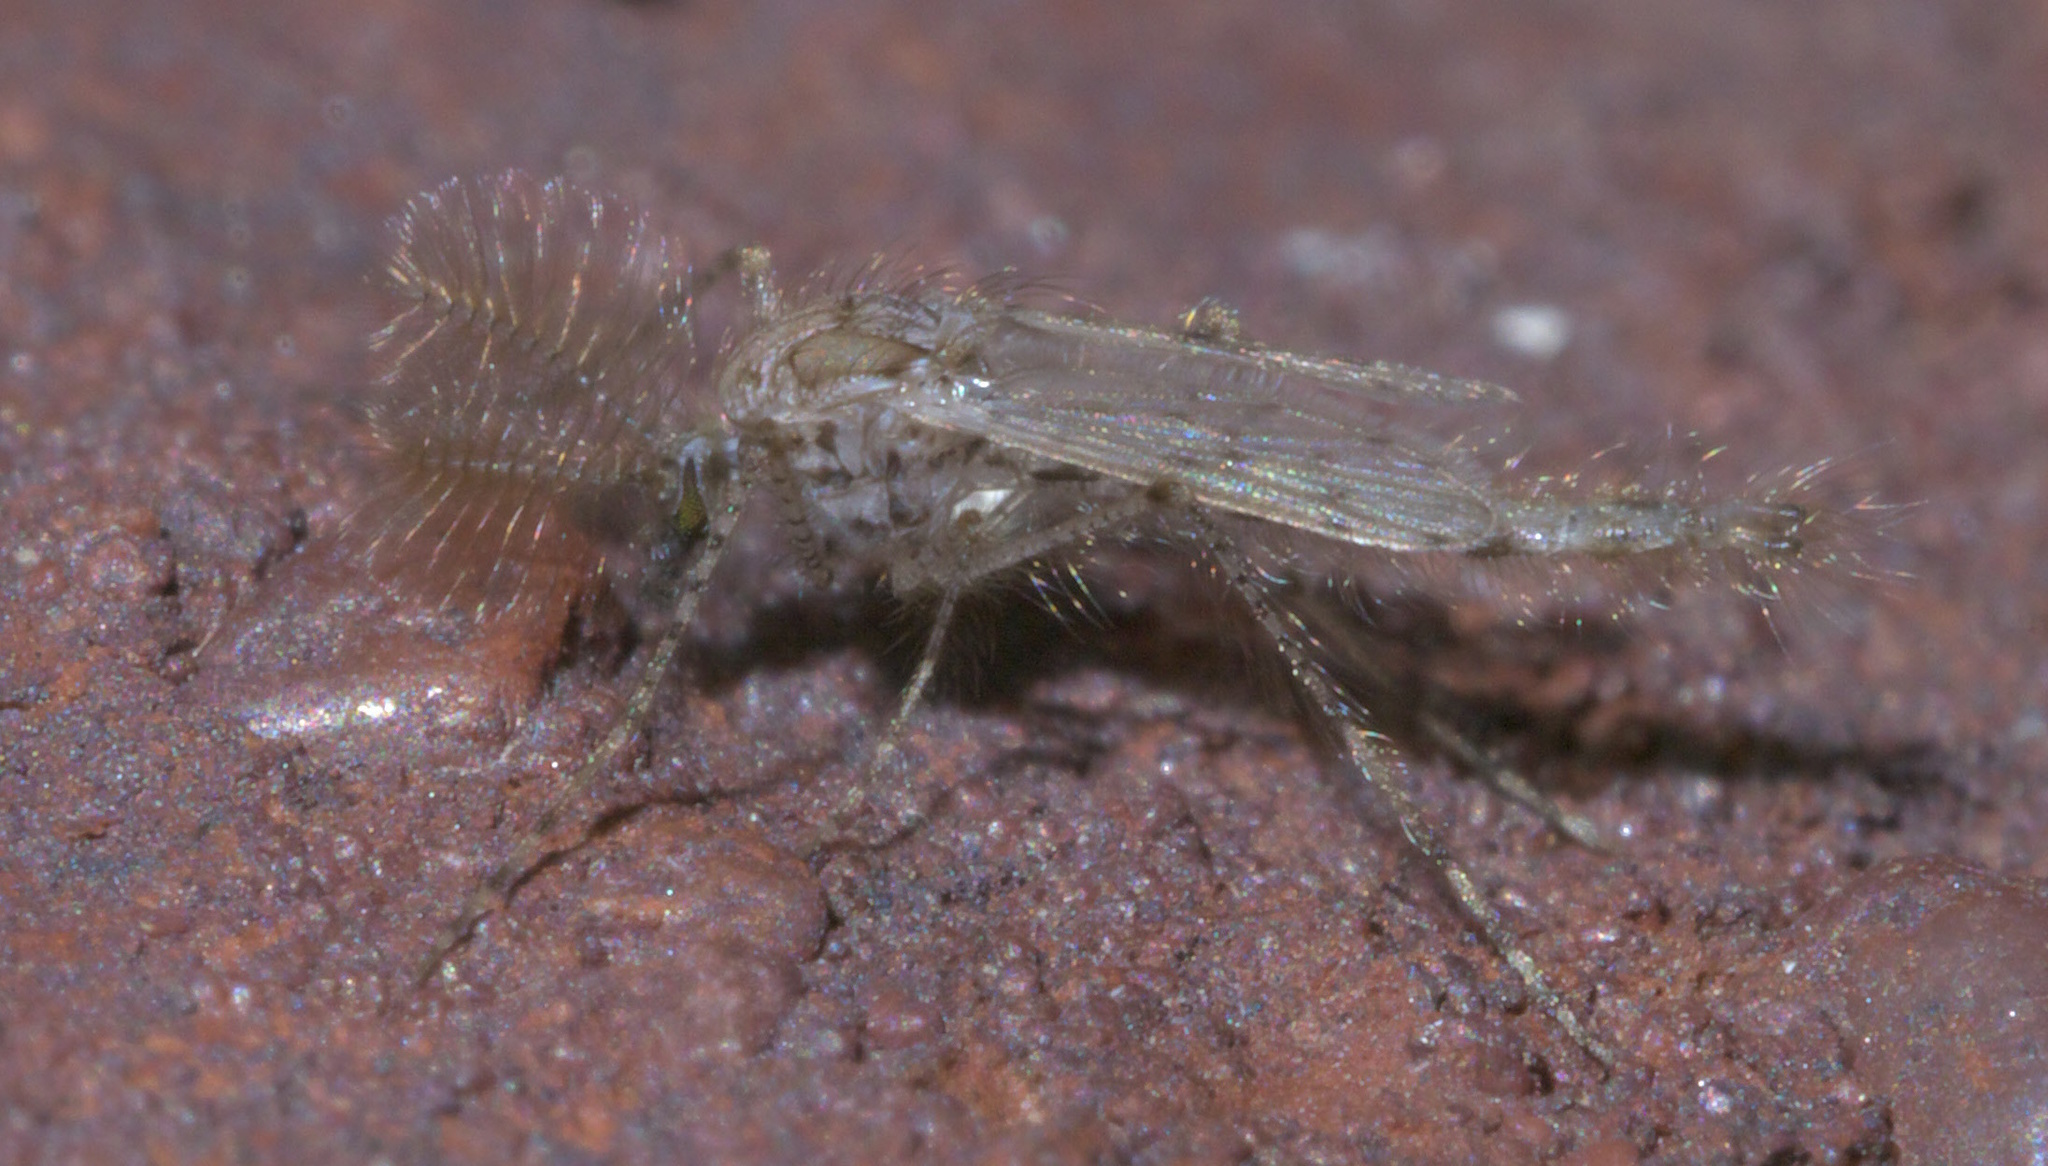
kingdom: Animalia
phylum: Arthropoda
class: Insecta
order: Diptera
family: Chaoboridae
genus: Chaoborus
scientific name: Chaoborus punctipennis
